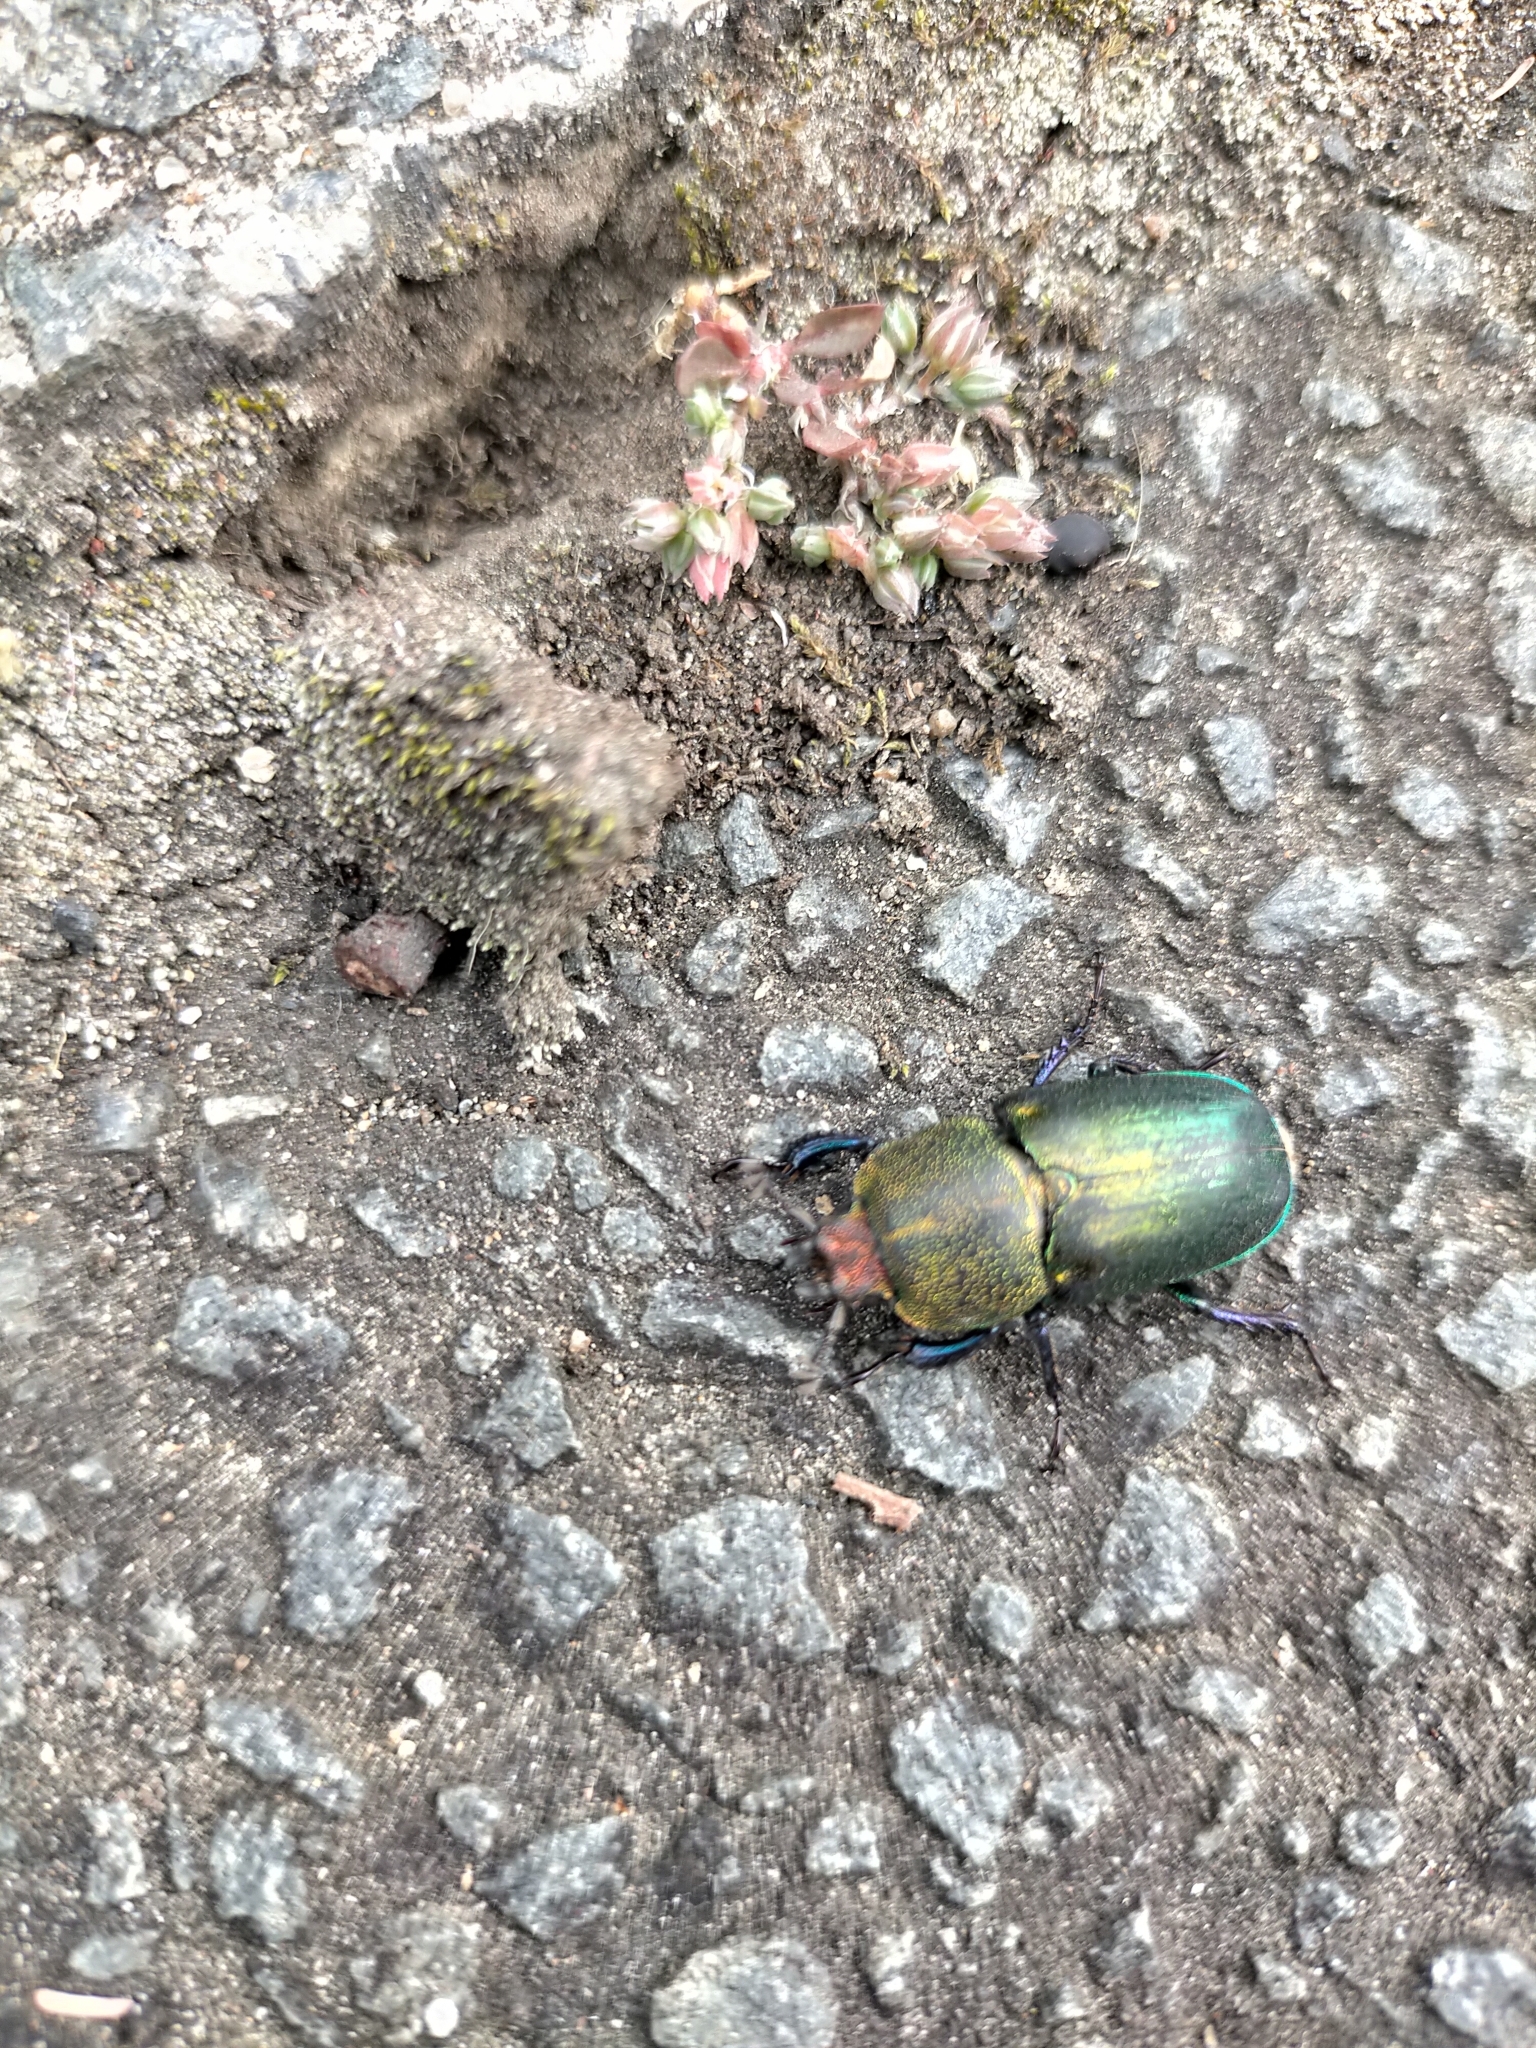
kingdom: Animalia
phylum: Arthropoda
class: Insecta
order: Coleoptera
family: Lucanidae
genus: Lamprima
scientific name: Lamprima aurata
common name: Golden stag beetle
